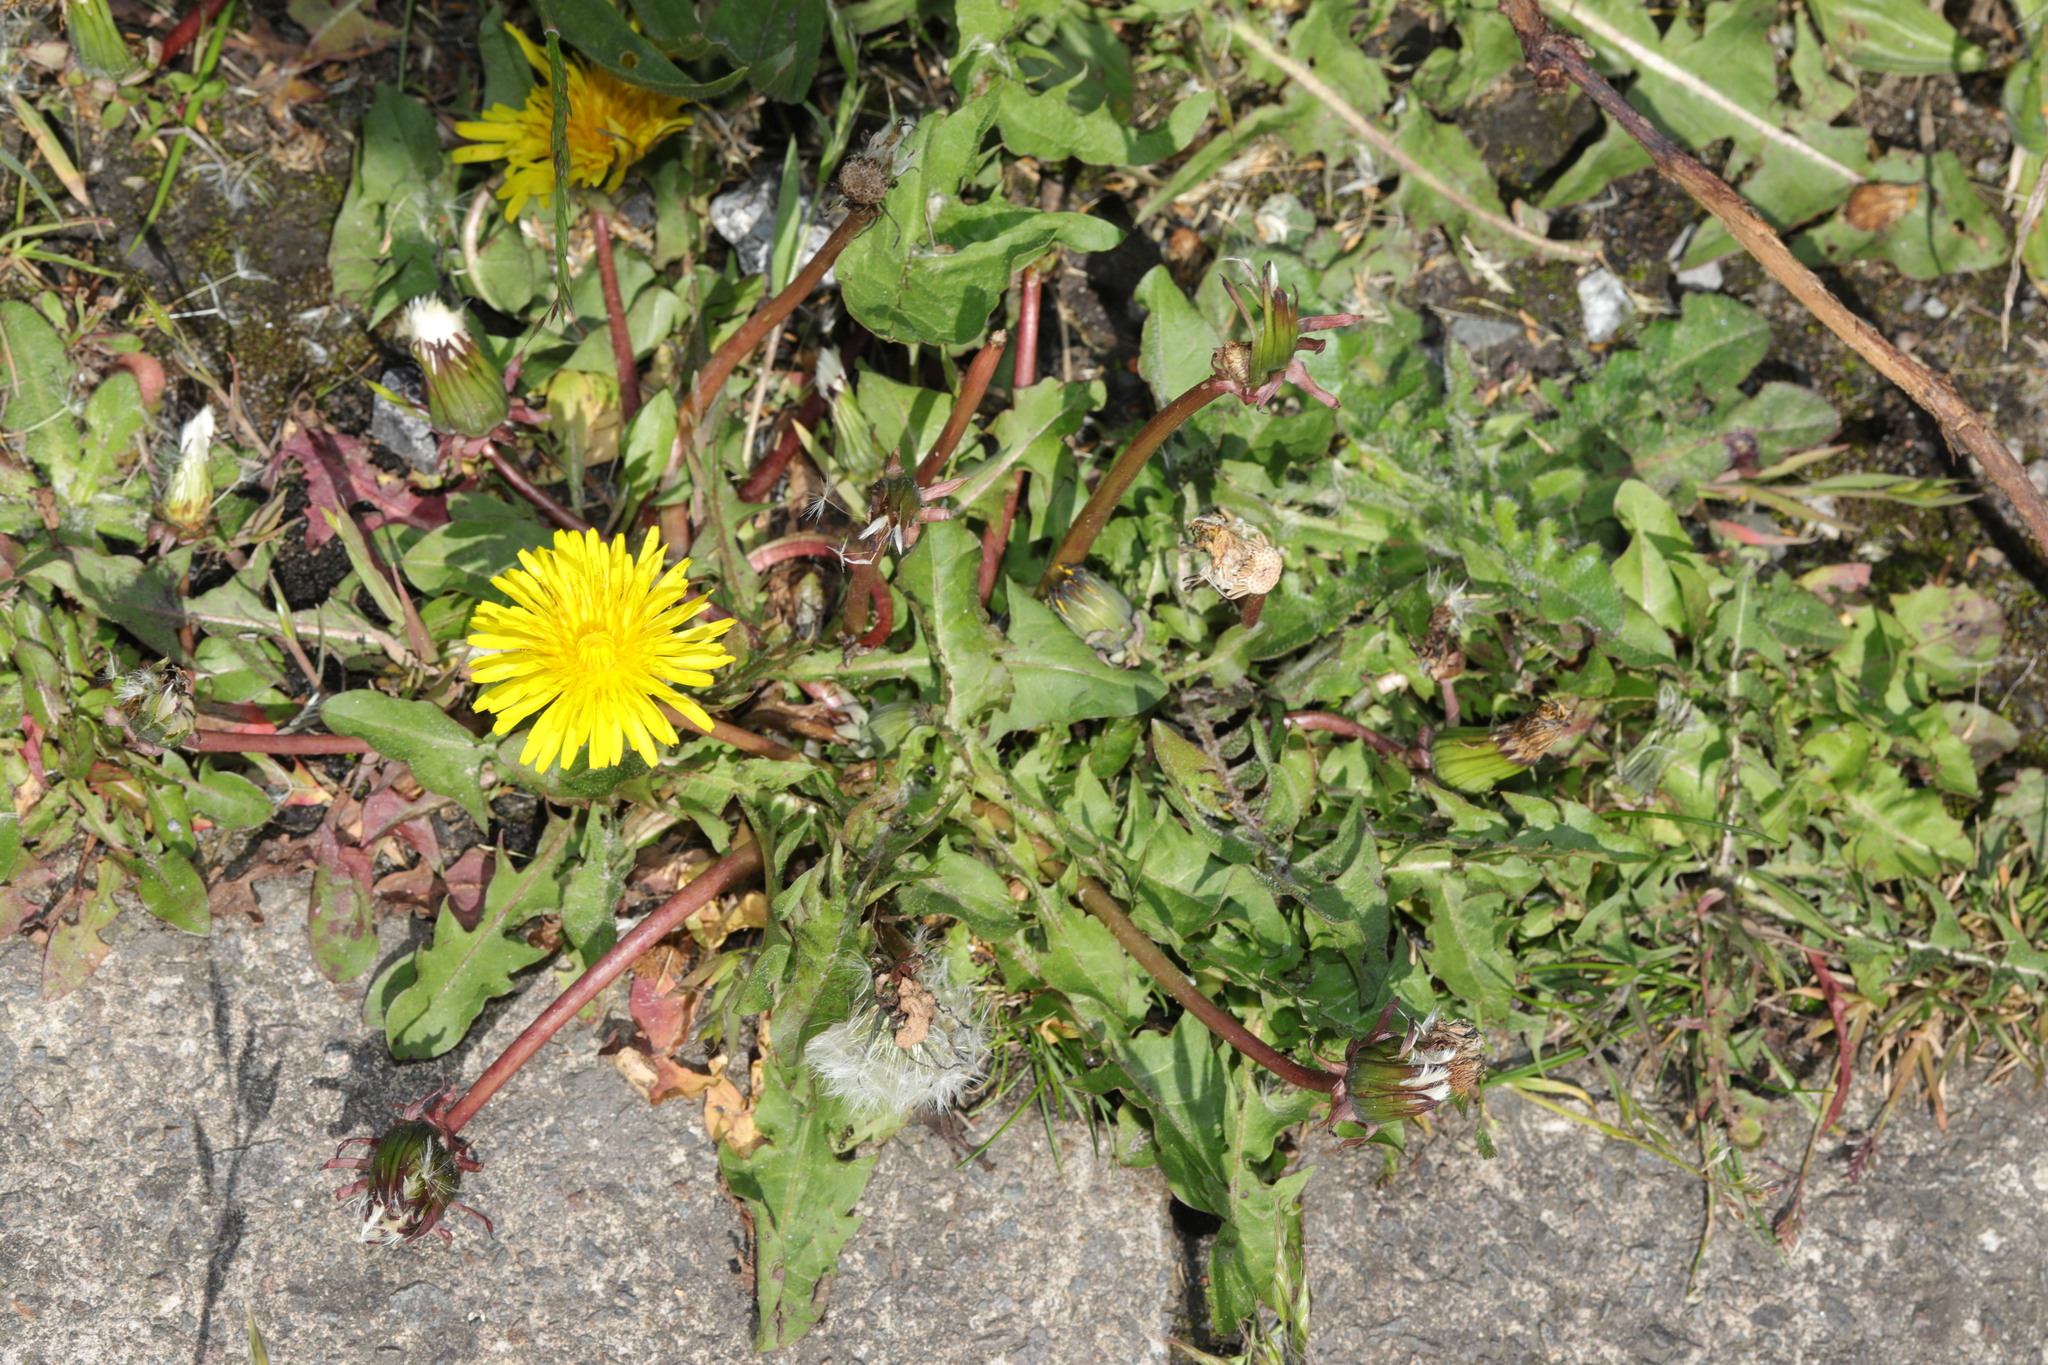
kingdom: Plantae
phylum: Tracheophyta
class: Magnoliopsida
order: Asterales
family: Asteraceae
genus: Taraxacum
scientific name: Taraxacum officinale
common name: Common dandelion
